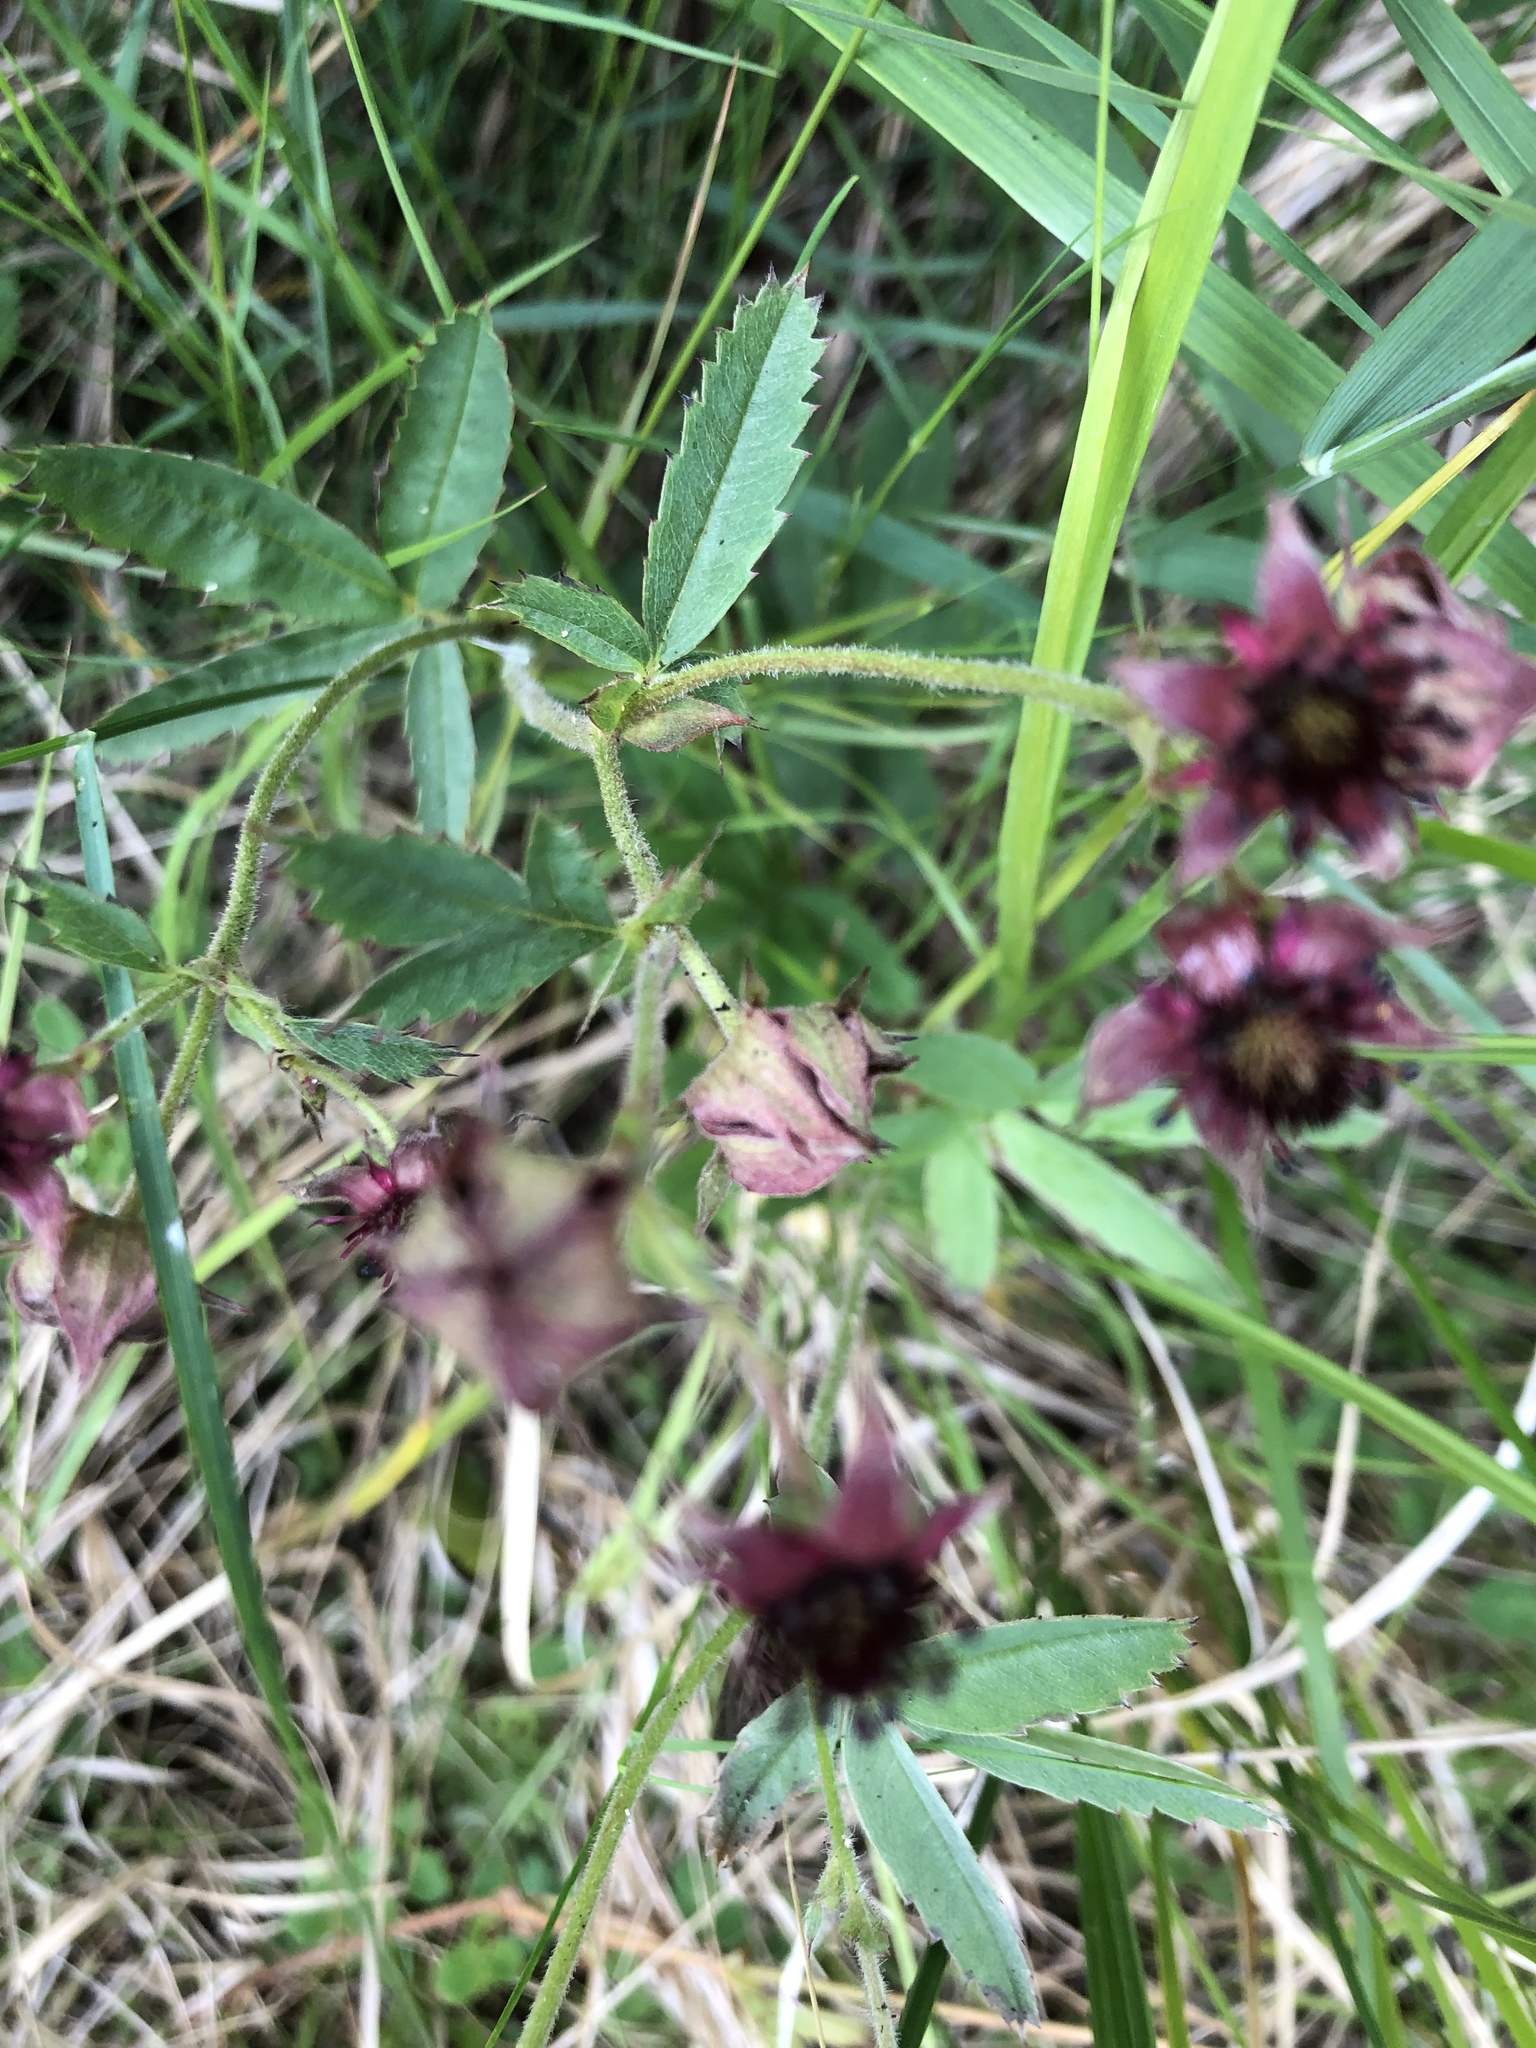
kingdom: Plantae
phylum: Tracheophyta
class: Magnoliopsida
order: Rosales
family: Rosaceae
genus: Comarum
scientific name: Comarum palustre
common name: Marsh cinquefoil
